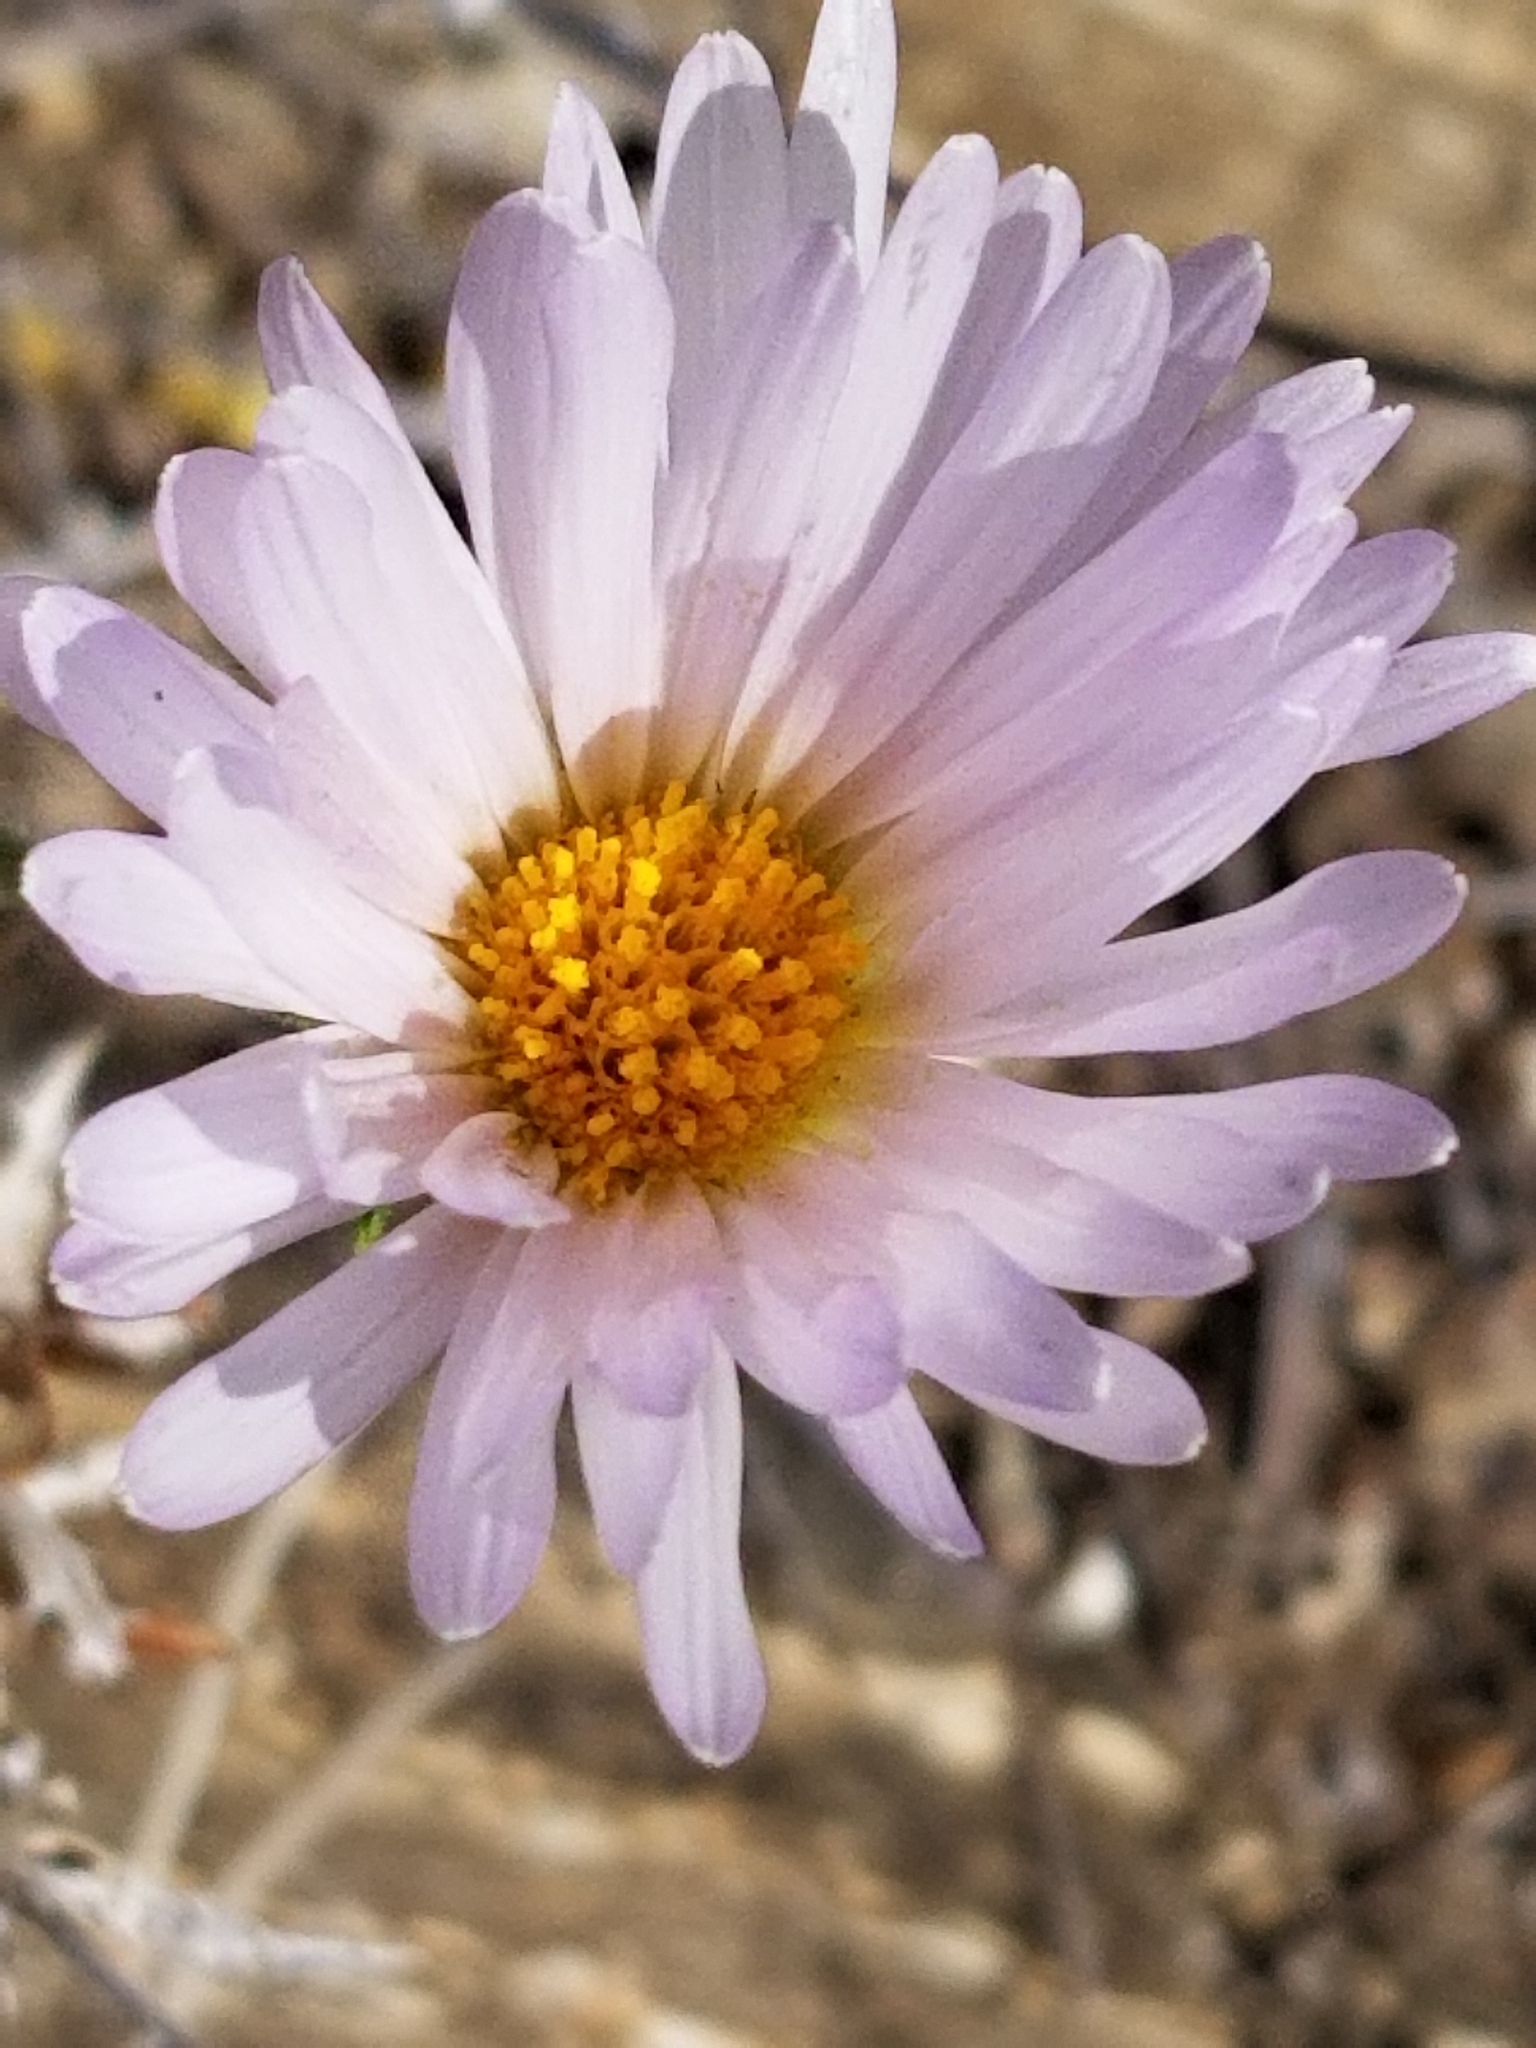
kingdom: Plantae
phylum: Tracheophyta
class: Magnoliopsida
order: Asterales
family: Asteraceae
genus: Xylorhiza
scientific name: Xylorhiza tortifolia
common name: Hurt-leaf woody-aster
